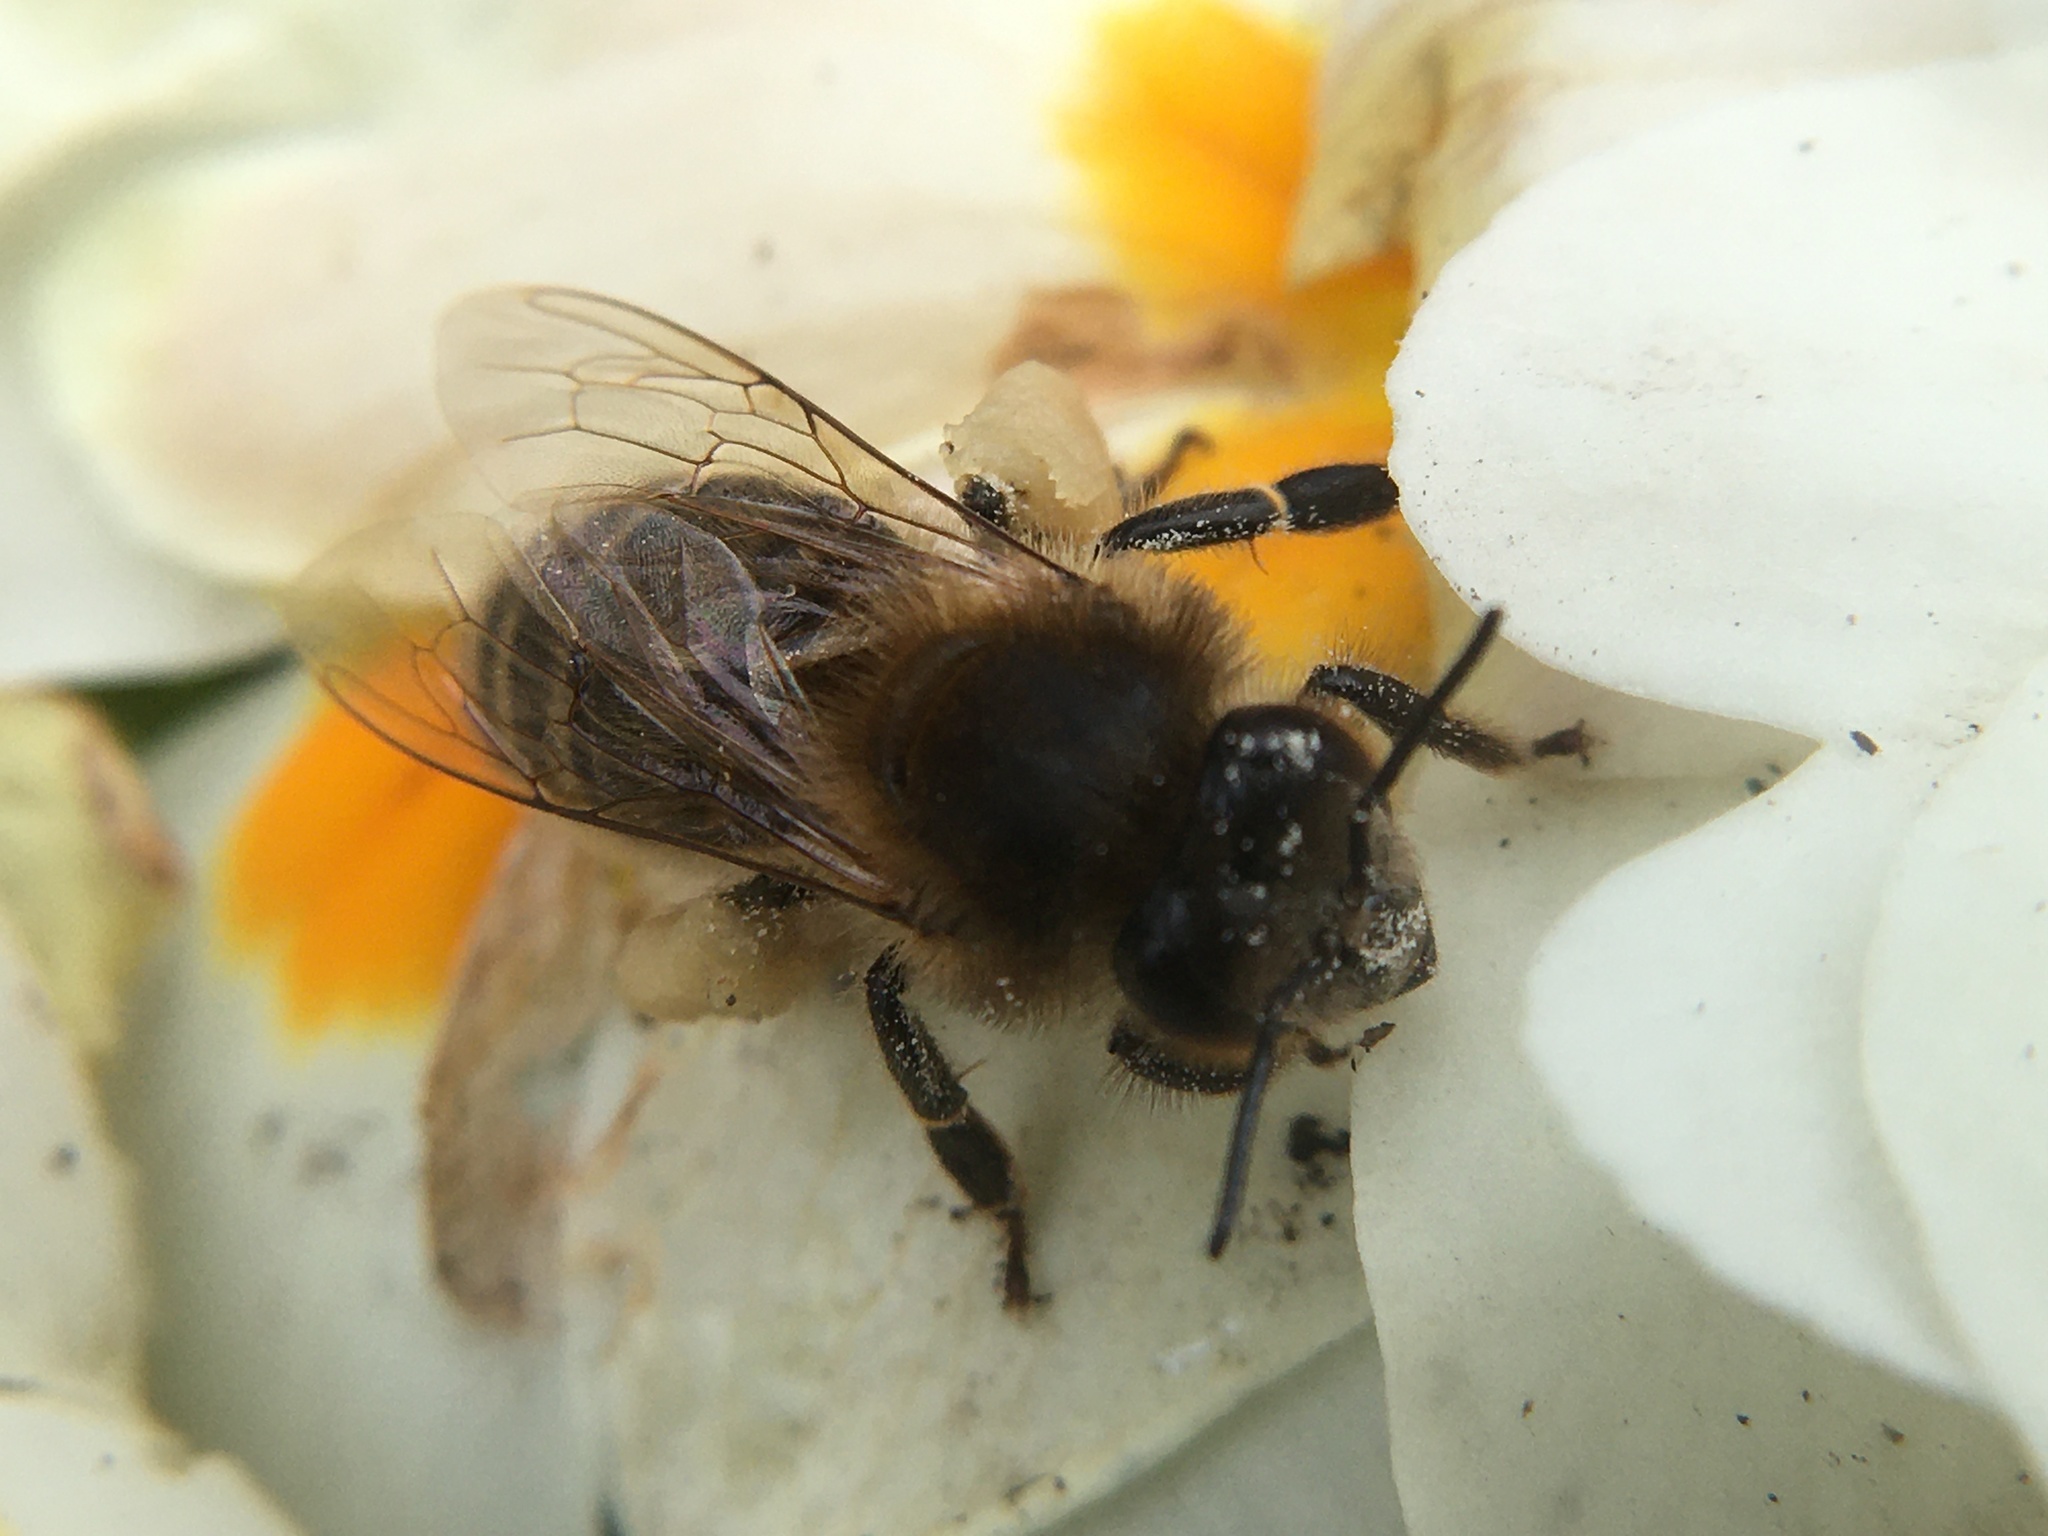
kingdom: Animalia
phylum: Arthropoda
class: Insecta
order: Hymenoptera
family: Apidae
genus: Apis
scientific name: Apis mellifera
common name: Honey bee
